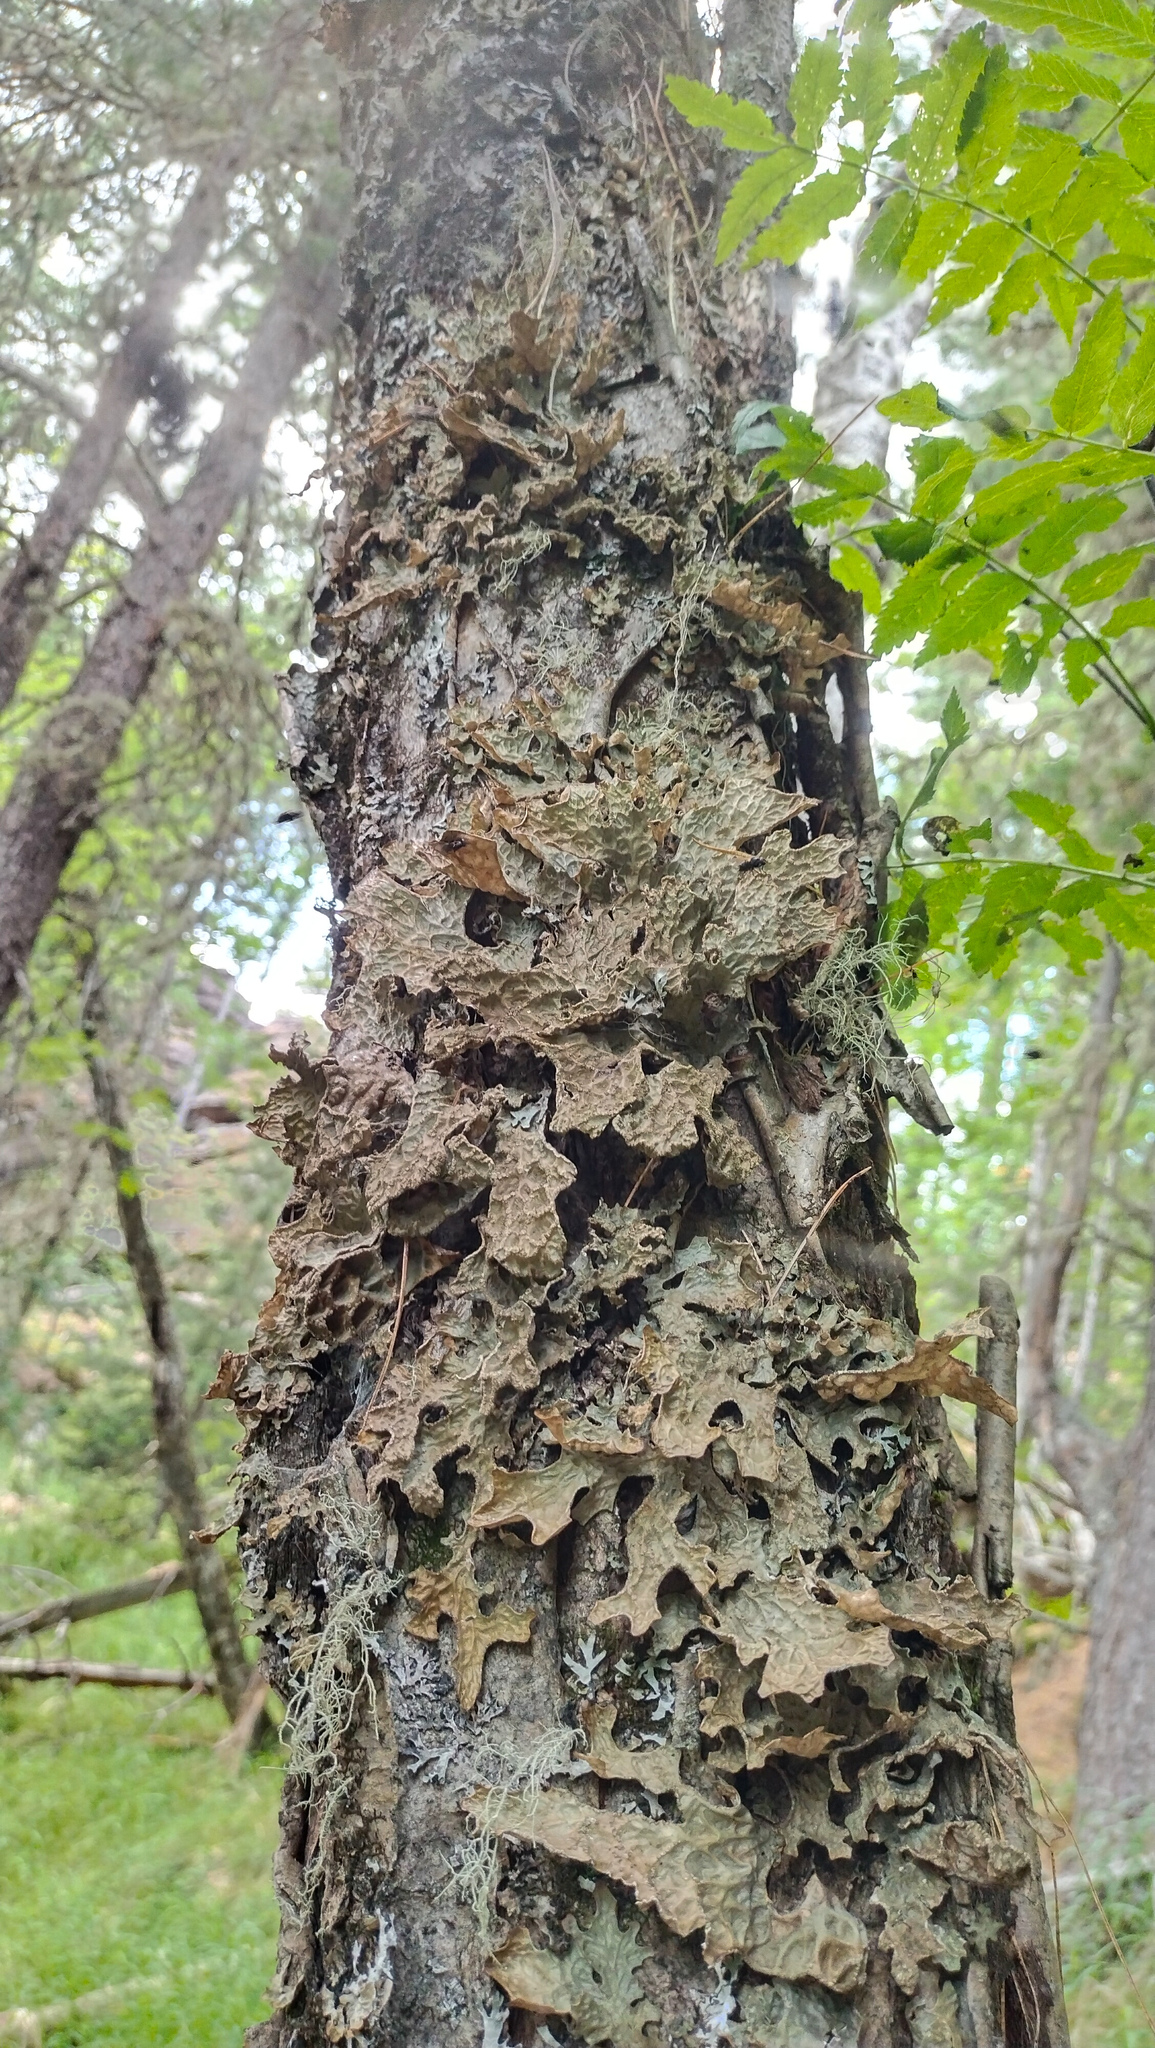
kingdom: Fungi
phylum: Ascomycota
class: Lecanoromycetes
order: Peltigerales
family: Lobariaceae
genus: Lobaria
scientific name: Lobaria pulmonaria
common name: Lungwort
